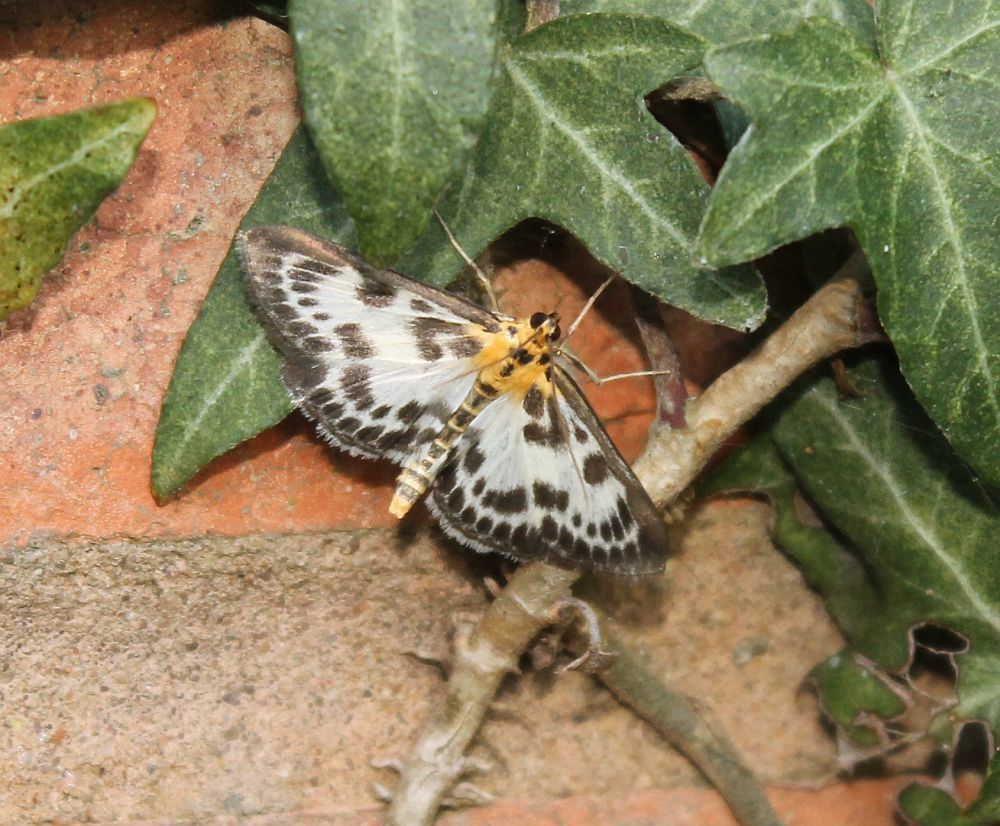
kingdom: Animalia
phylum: Arthropoda
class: Insecta
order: Lepidoptera
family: Crambidae
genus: Anania
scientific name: Anania hortulata
